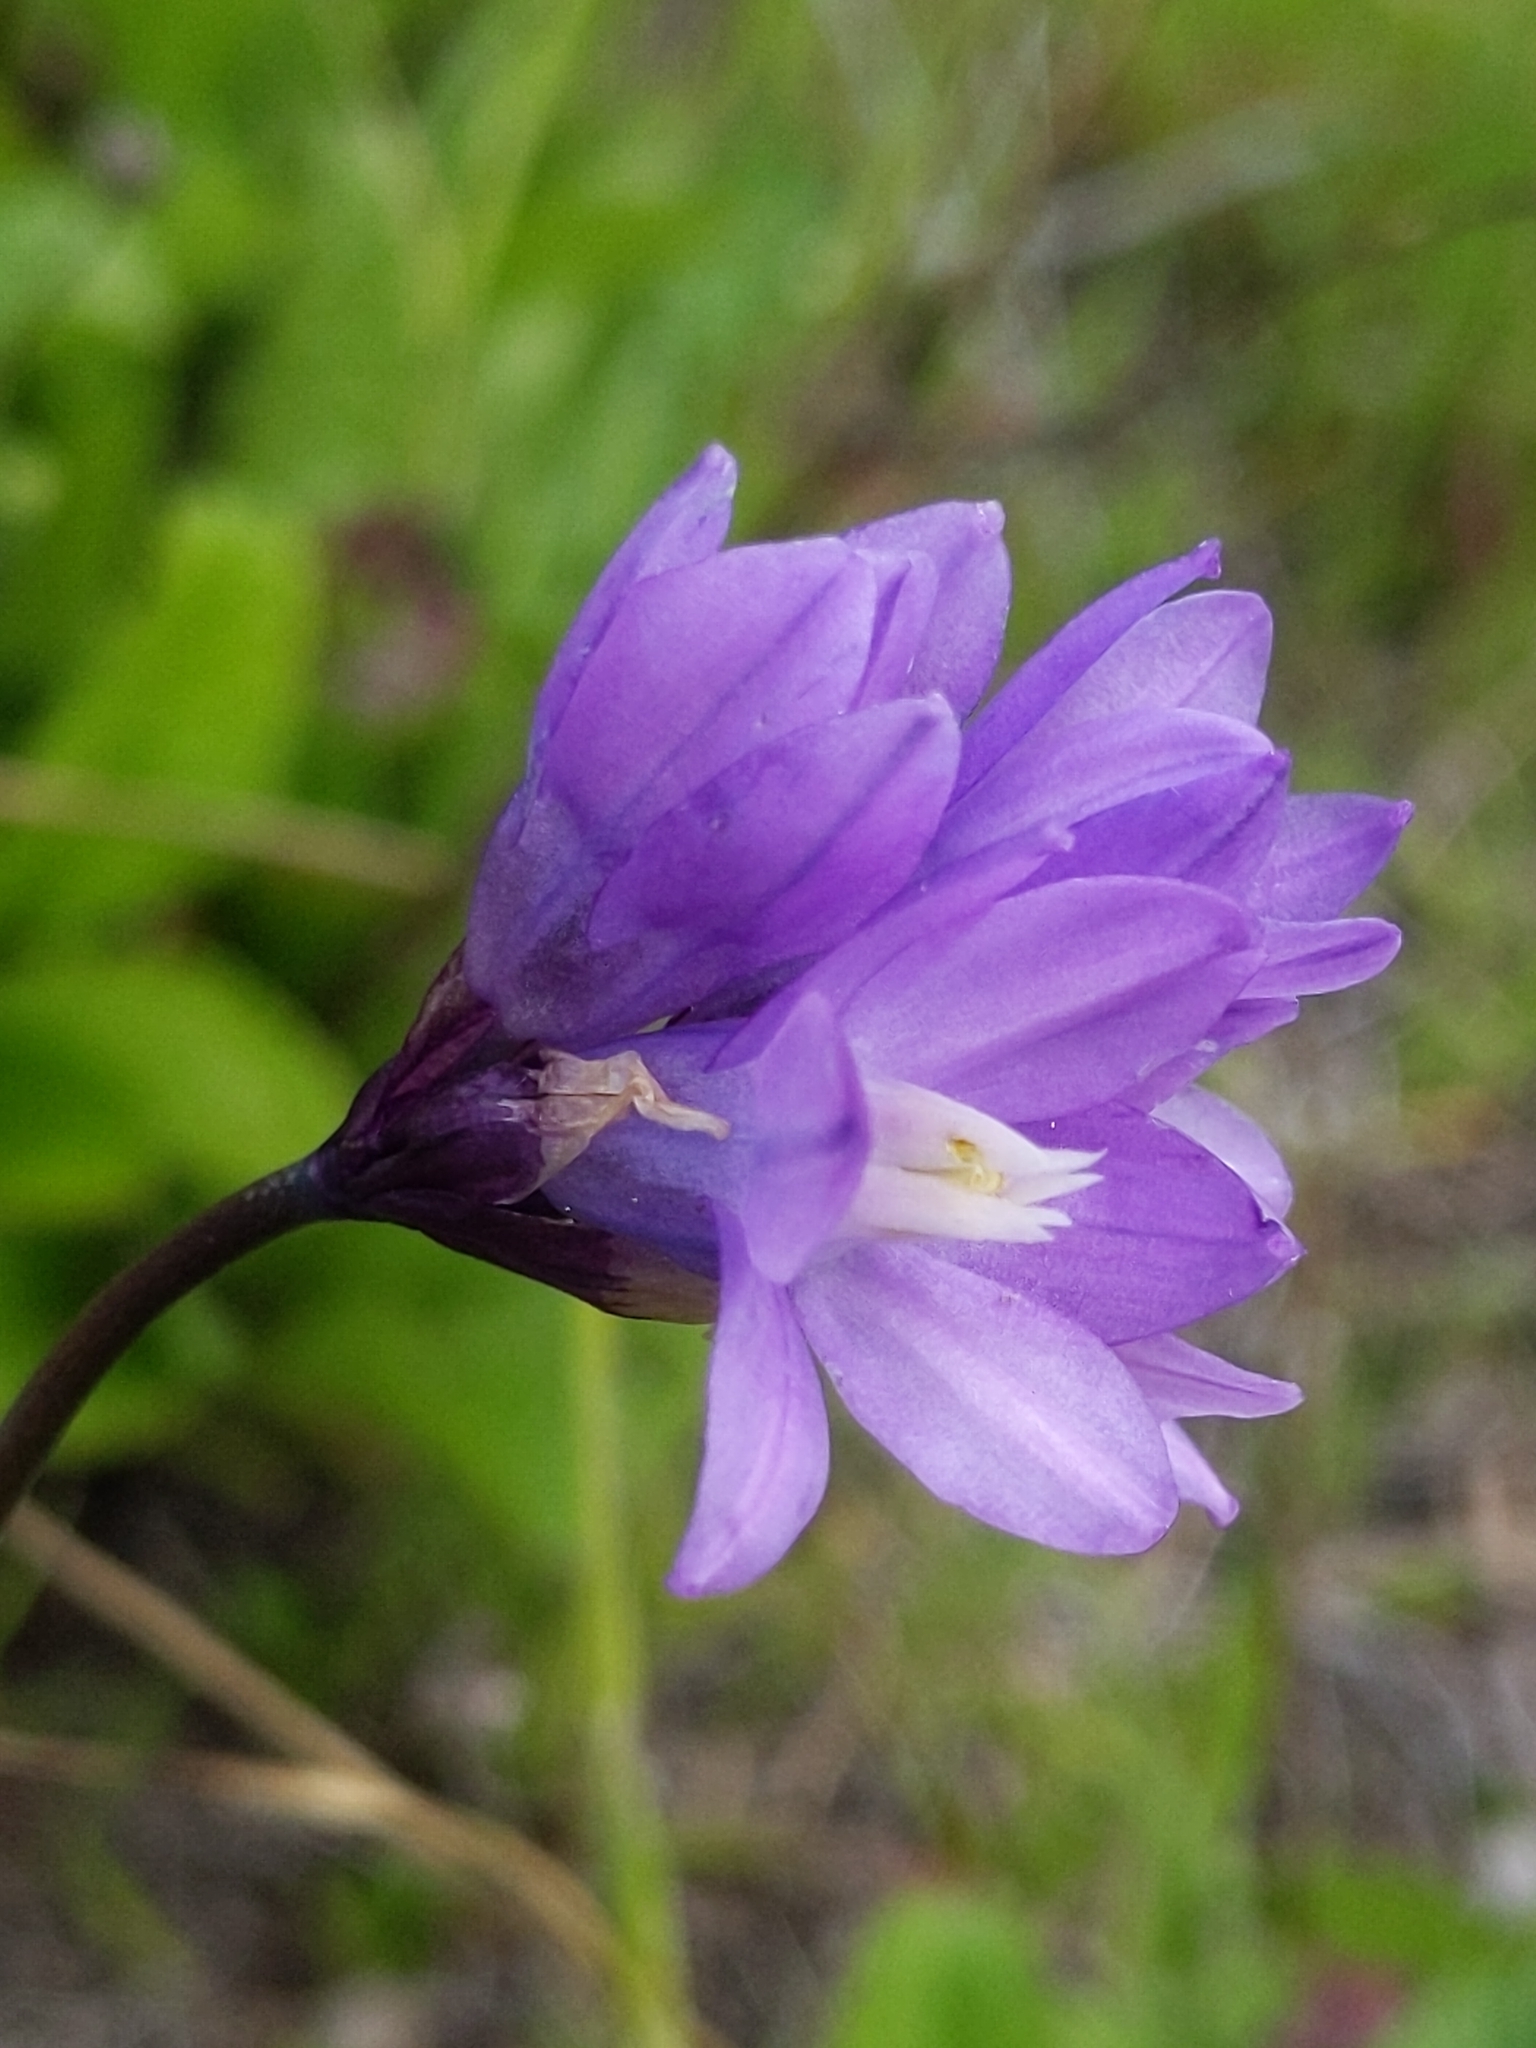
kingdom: Plantae
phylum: Tracheophyta
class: Liliopsida
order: Asparagales
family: Asparagaceae
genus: Dipterostemon
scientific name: Dipterostemon capitatus
